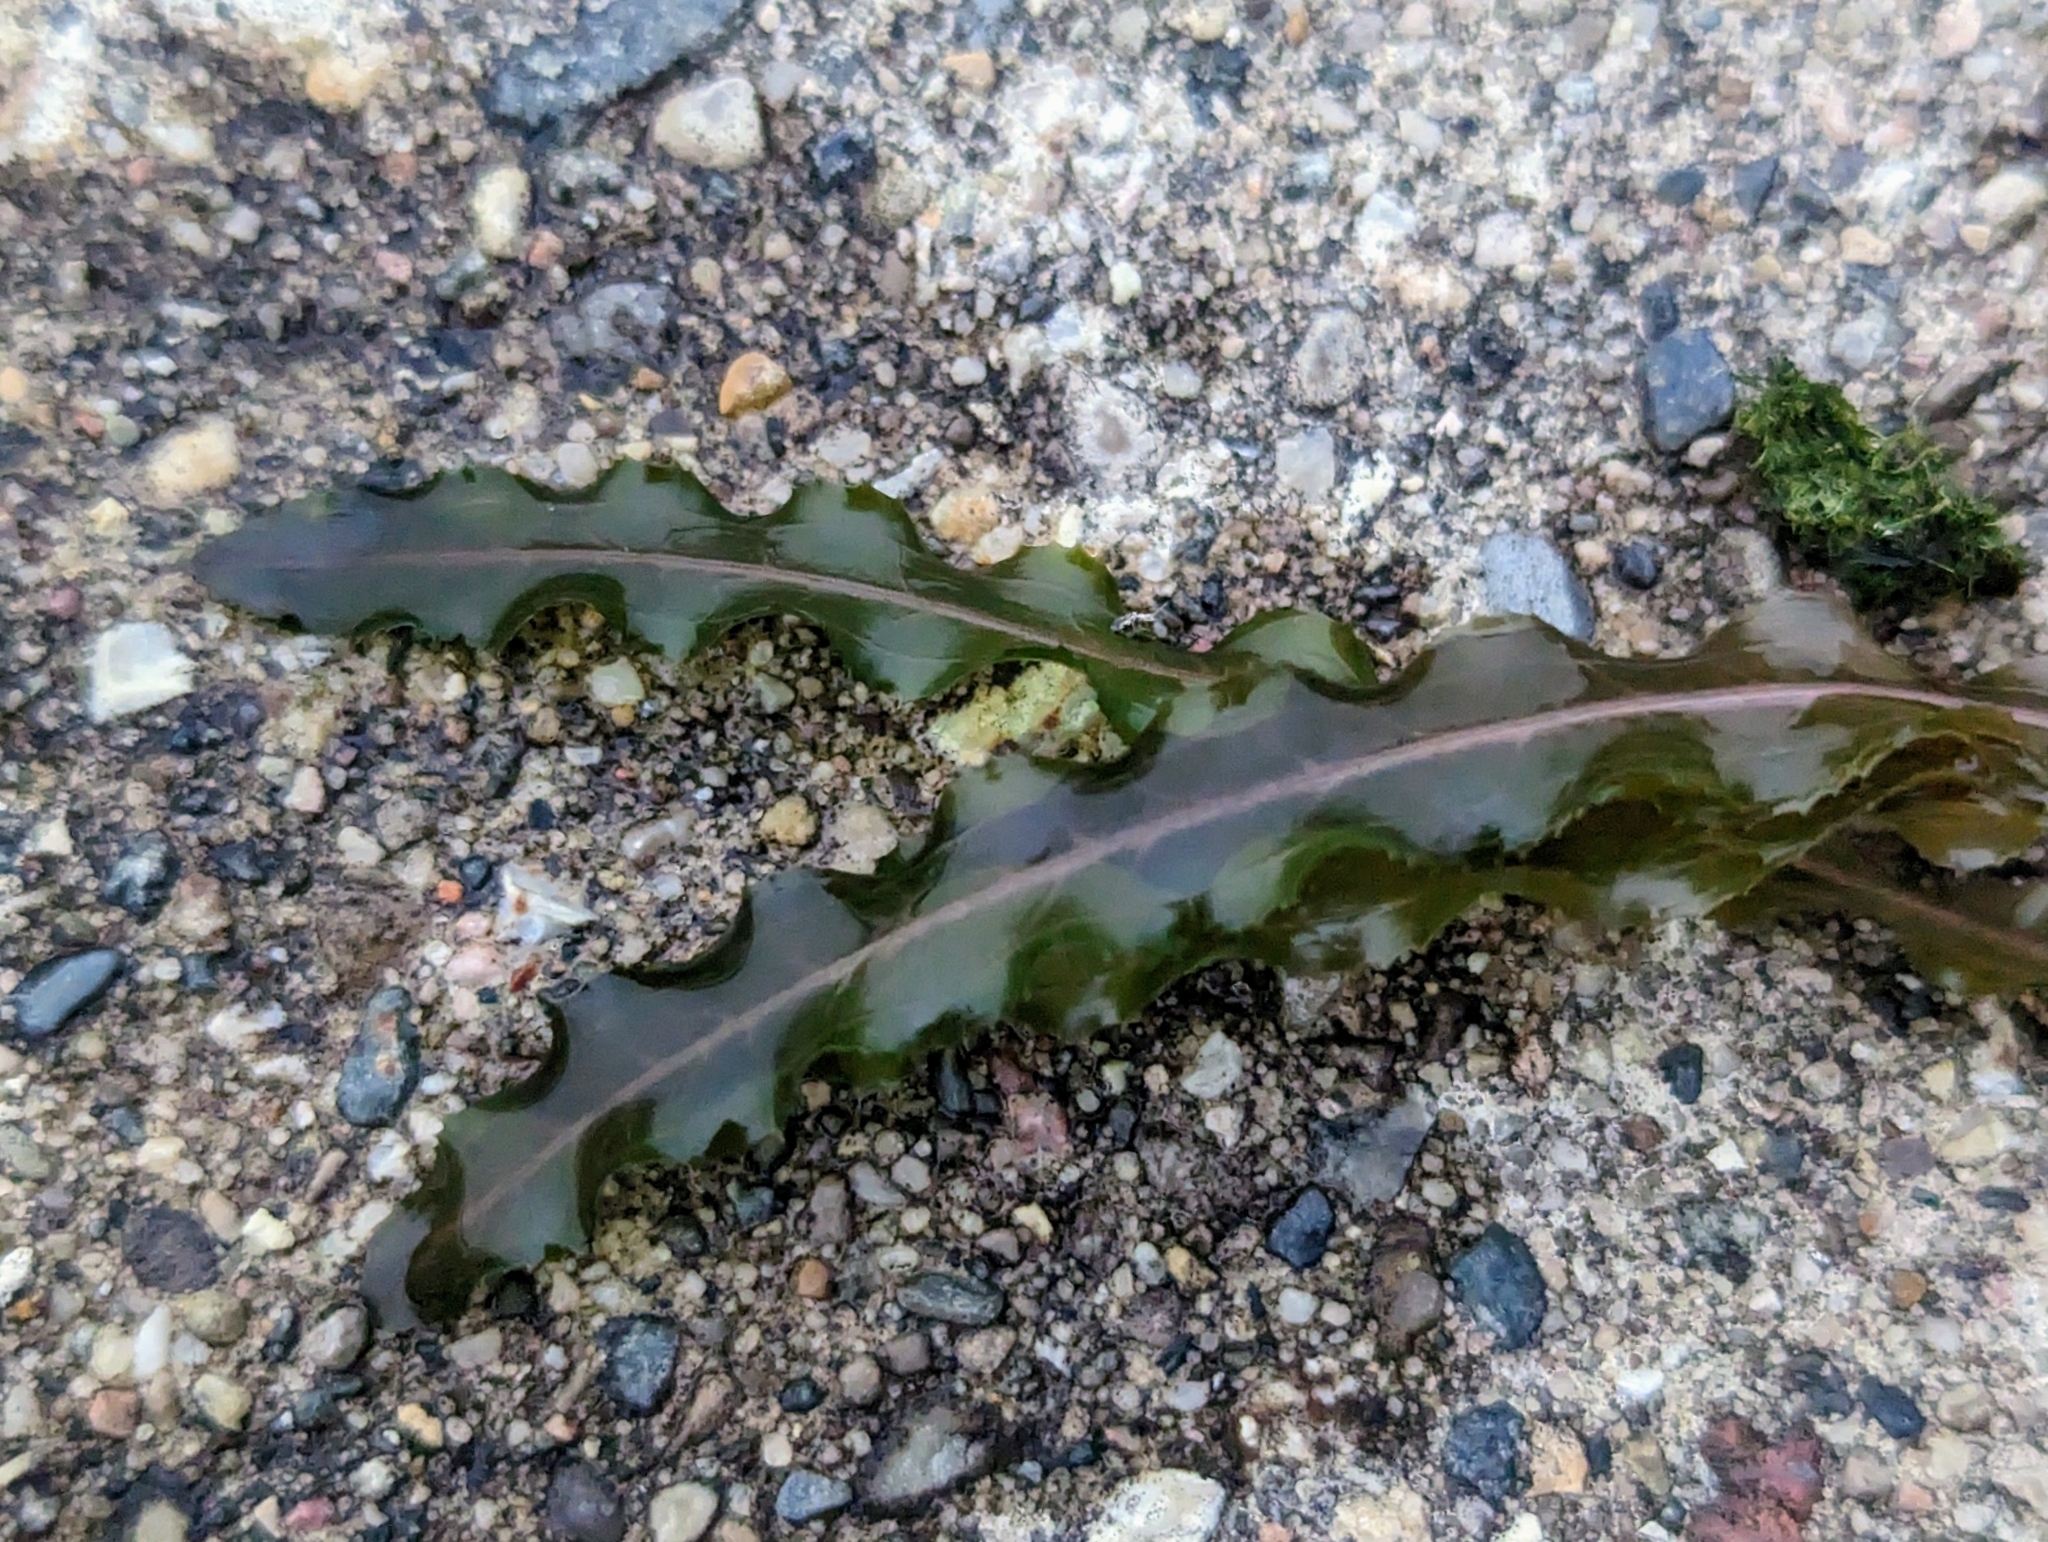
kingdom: Plantae
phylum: Tracheophyta
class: Liliopsida
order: Alismatales
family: Potamogetonaceae
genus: Potamogeton
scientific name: Potamogeton crispus
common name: Curled pondweed
